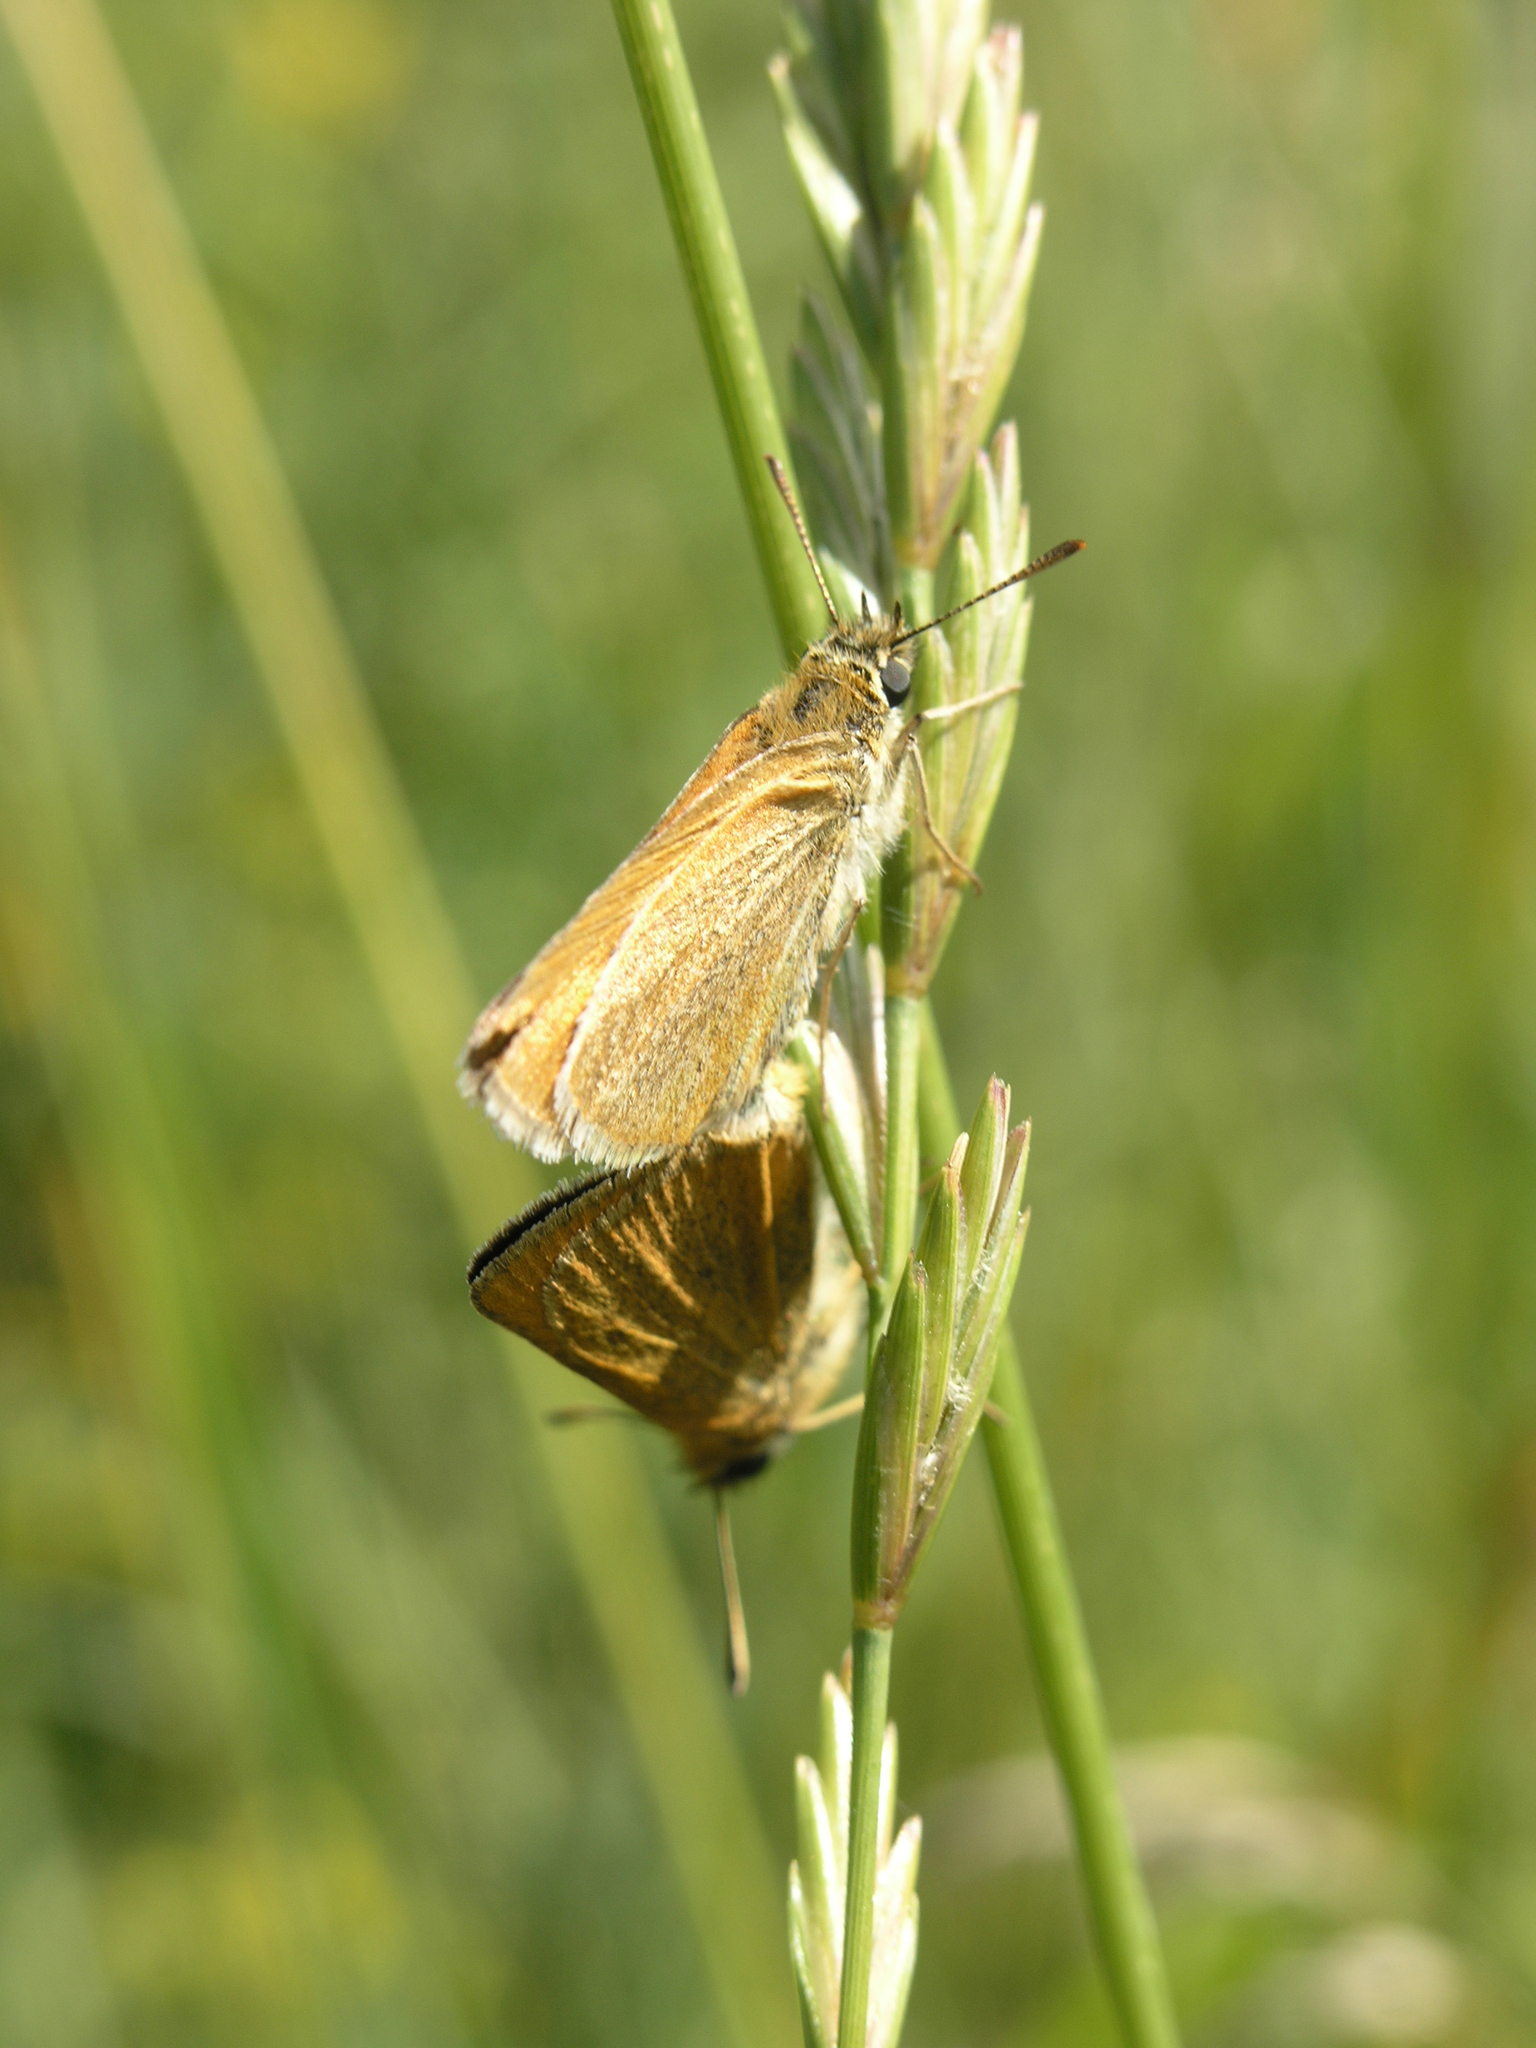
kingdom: Animalia
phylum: Arthropoda
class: Insecta
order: Lepidoptera
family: Hesperiidae
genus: Thymelicus
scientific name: Thymelicus lineola
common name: Essex skipper
